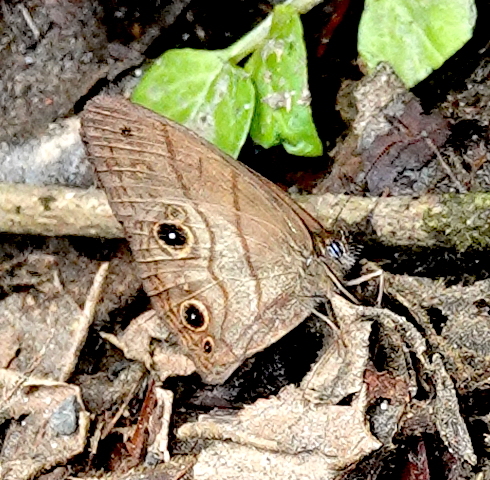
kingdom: Animalia
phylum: Arthropoda
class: Insecta
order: Lepidoptera
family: Nymphalidae
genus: Hermeuptychia
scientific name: Hermeuptychia harmonia
